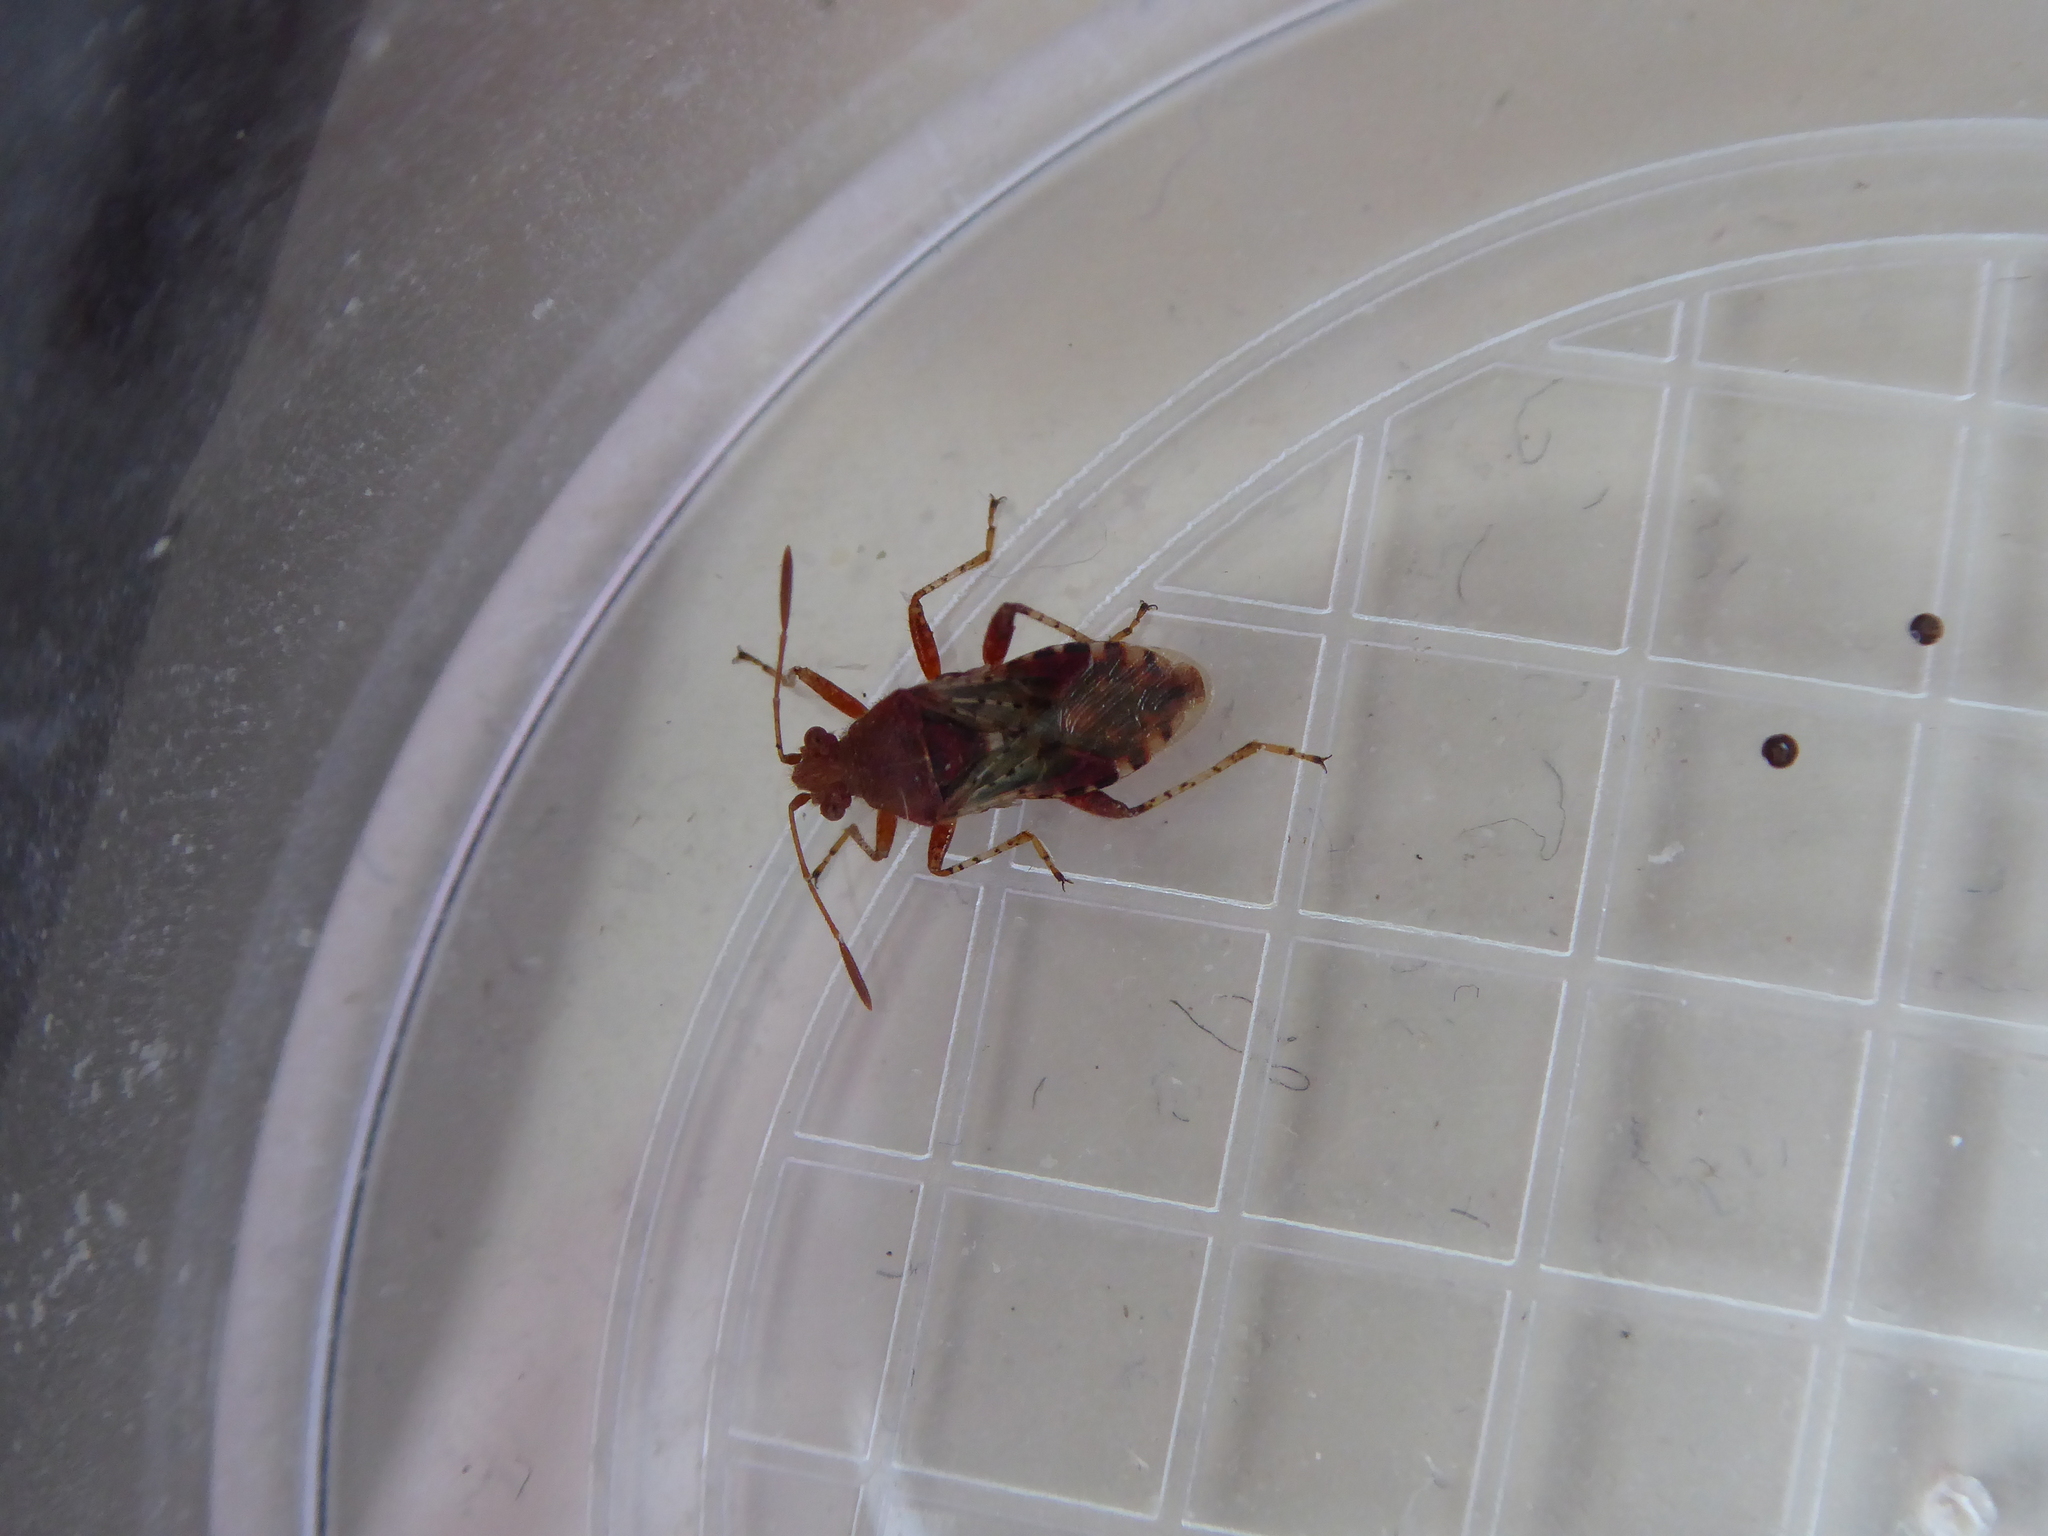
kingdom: Animalia
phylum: Arthropoda
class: Insecta
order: Hemiptera
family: Rhopalidae
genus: Rhopalus
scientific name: Rhopalus subrufus
